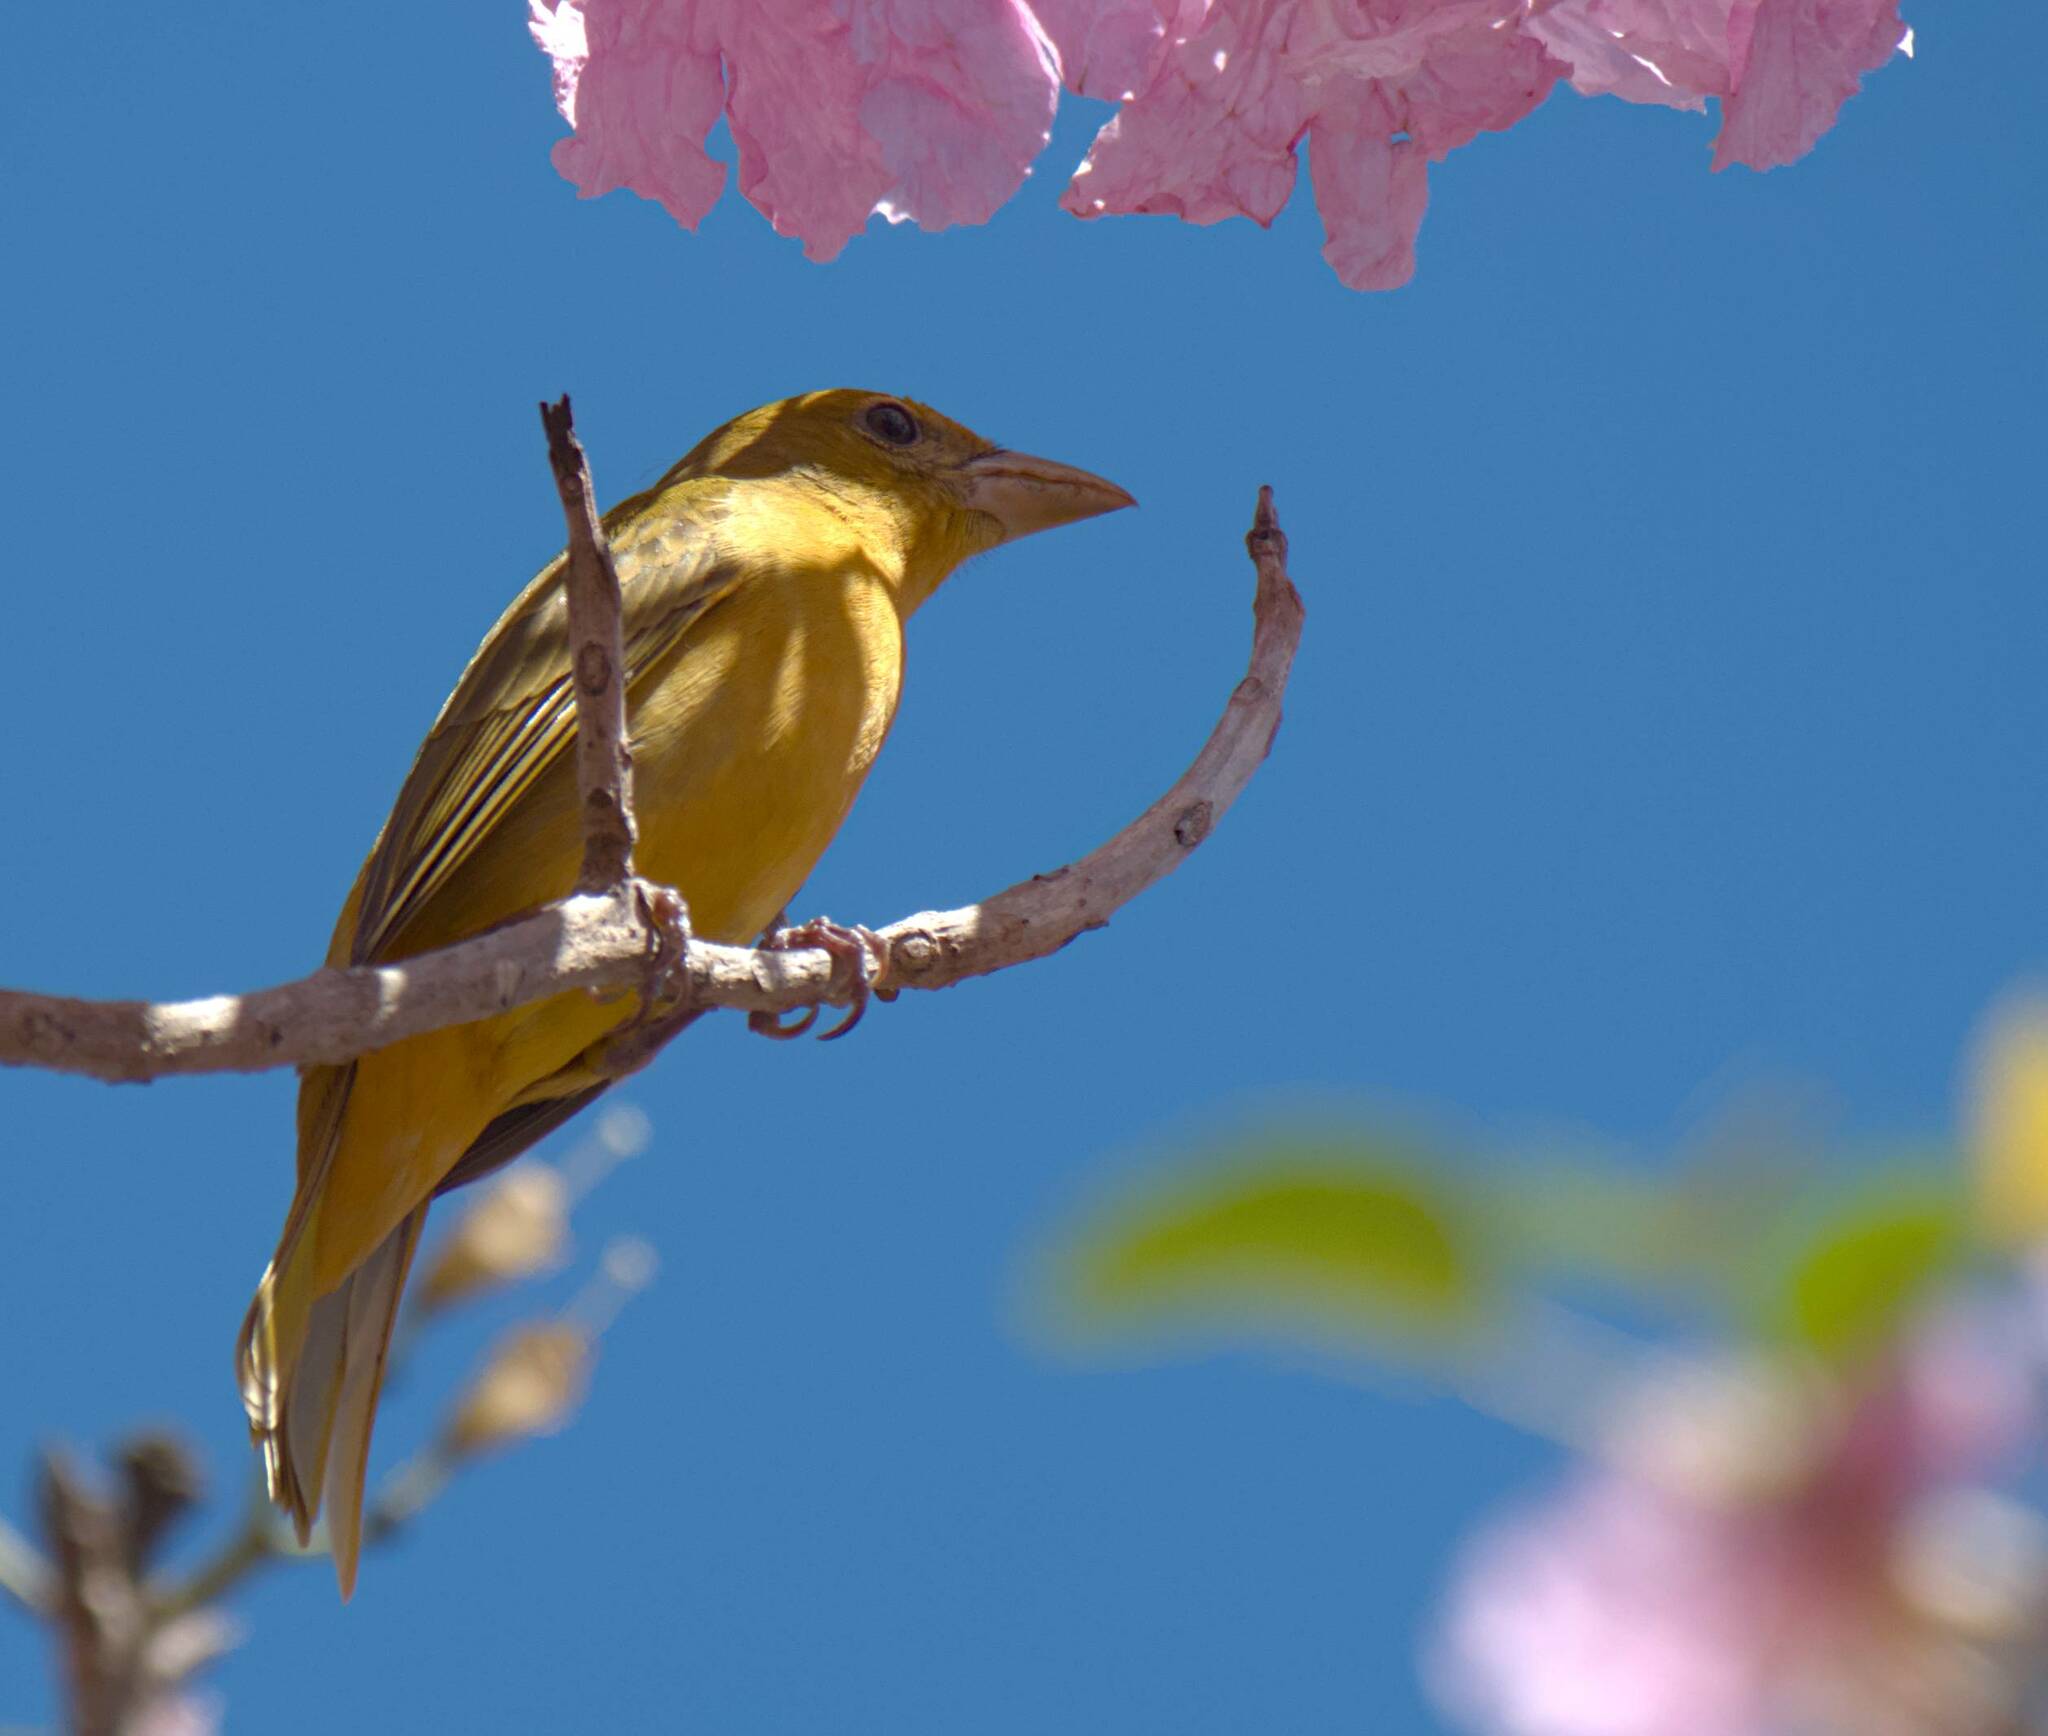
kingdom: Animalia
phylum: Chordata
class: Aves
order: Passeriformes
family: Cardinalidae
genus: Piranga
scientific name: Piranga rubra
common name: Summer tanager
